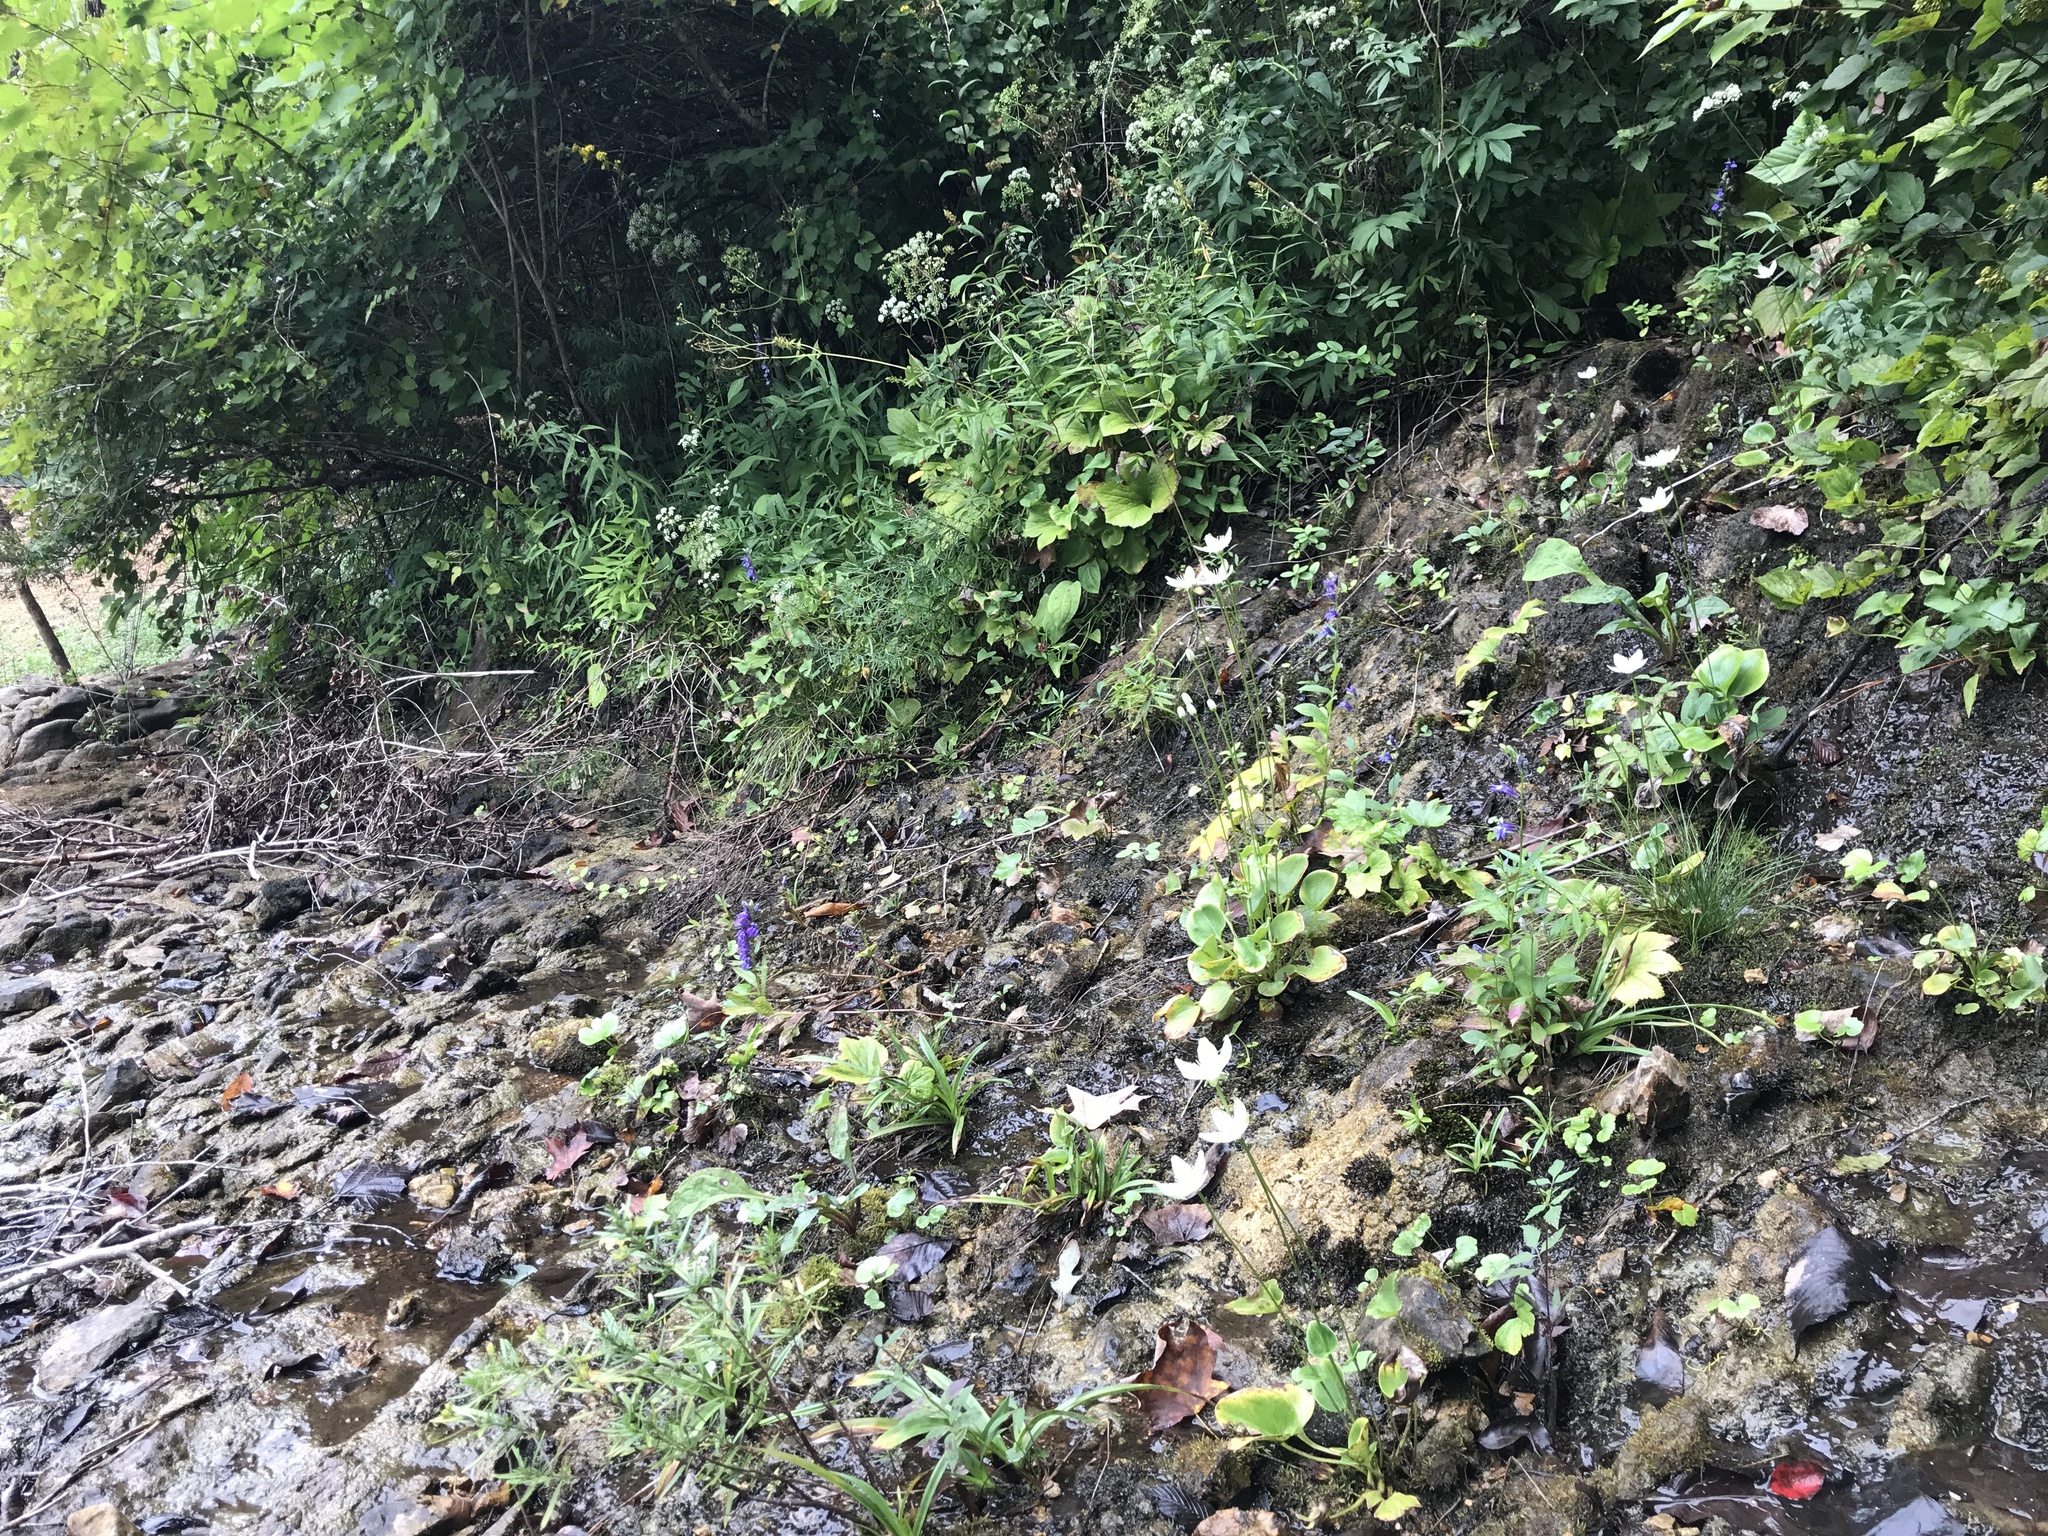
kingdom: Plantae
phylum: Tracheophyta
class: Magnoliopsida
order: Celastrales
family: Parnassiaceae
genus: Parnassia
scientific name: Parnassia grandifolia
